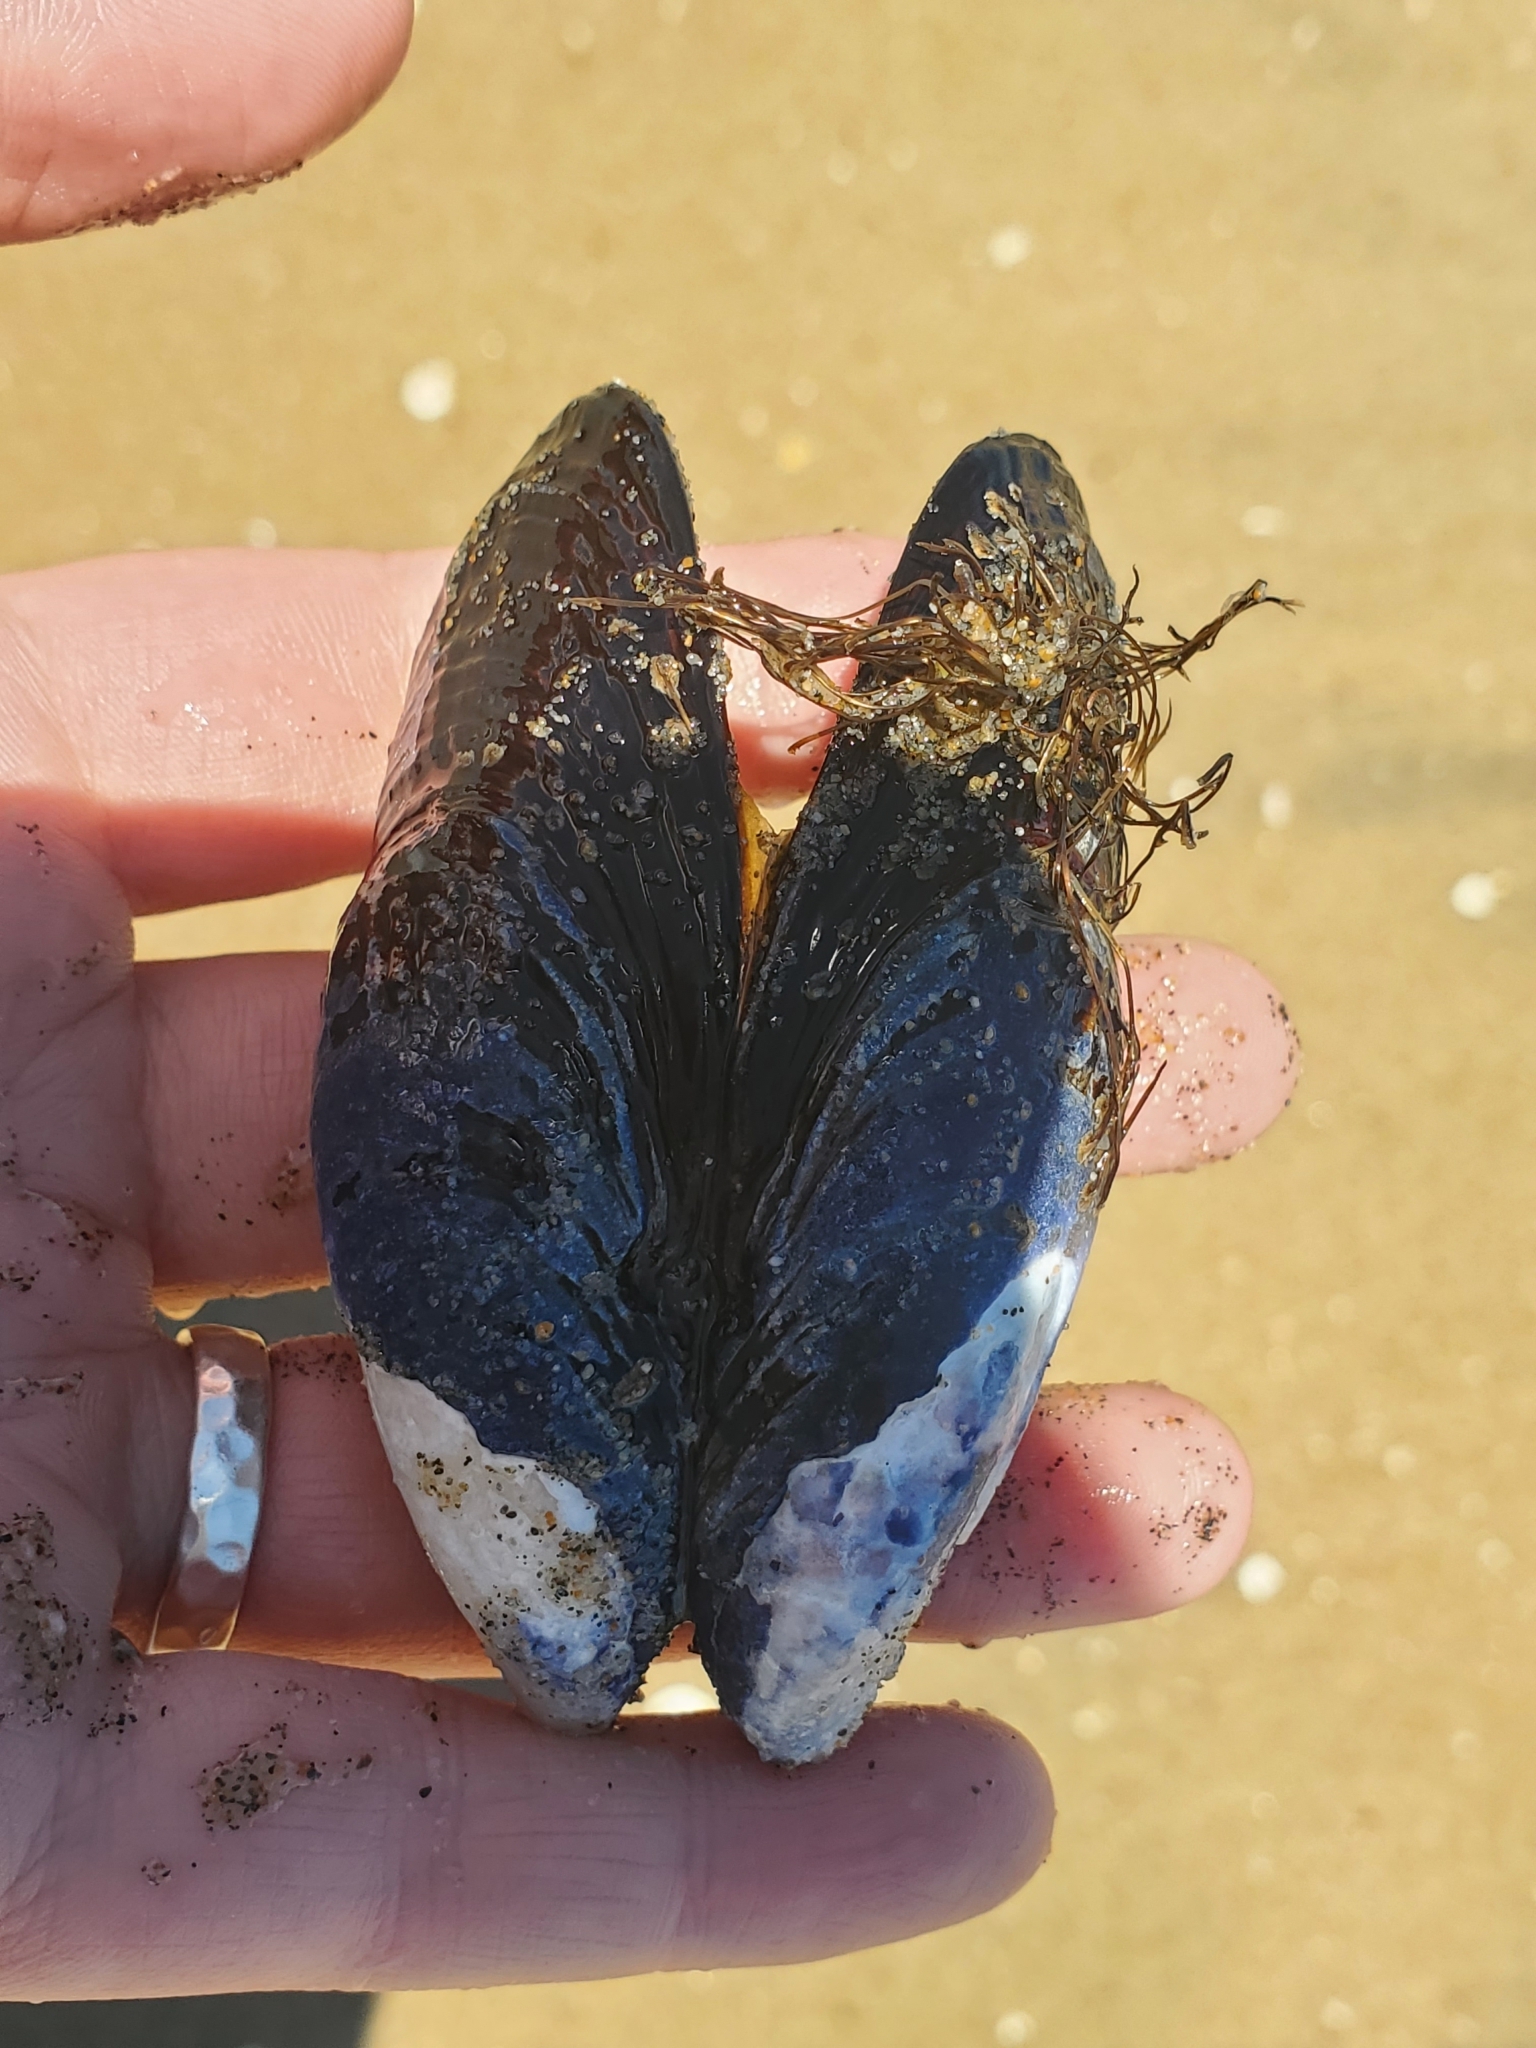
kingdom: Animalia
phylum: Mollusca
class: Bivalvia
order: Mytilida
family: Mytilidae
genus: Mytilus
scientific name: Mytilus californianus
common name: California mussel
